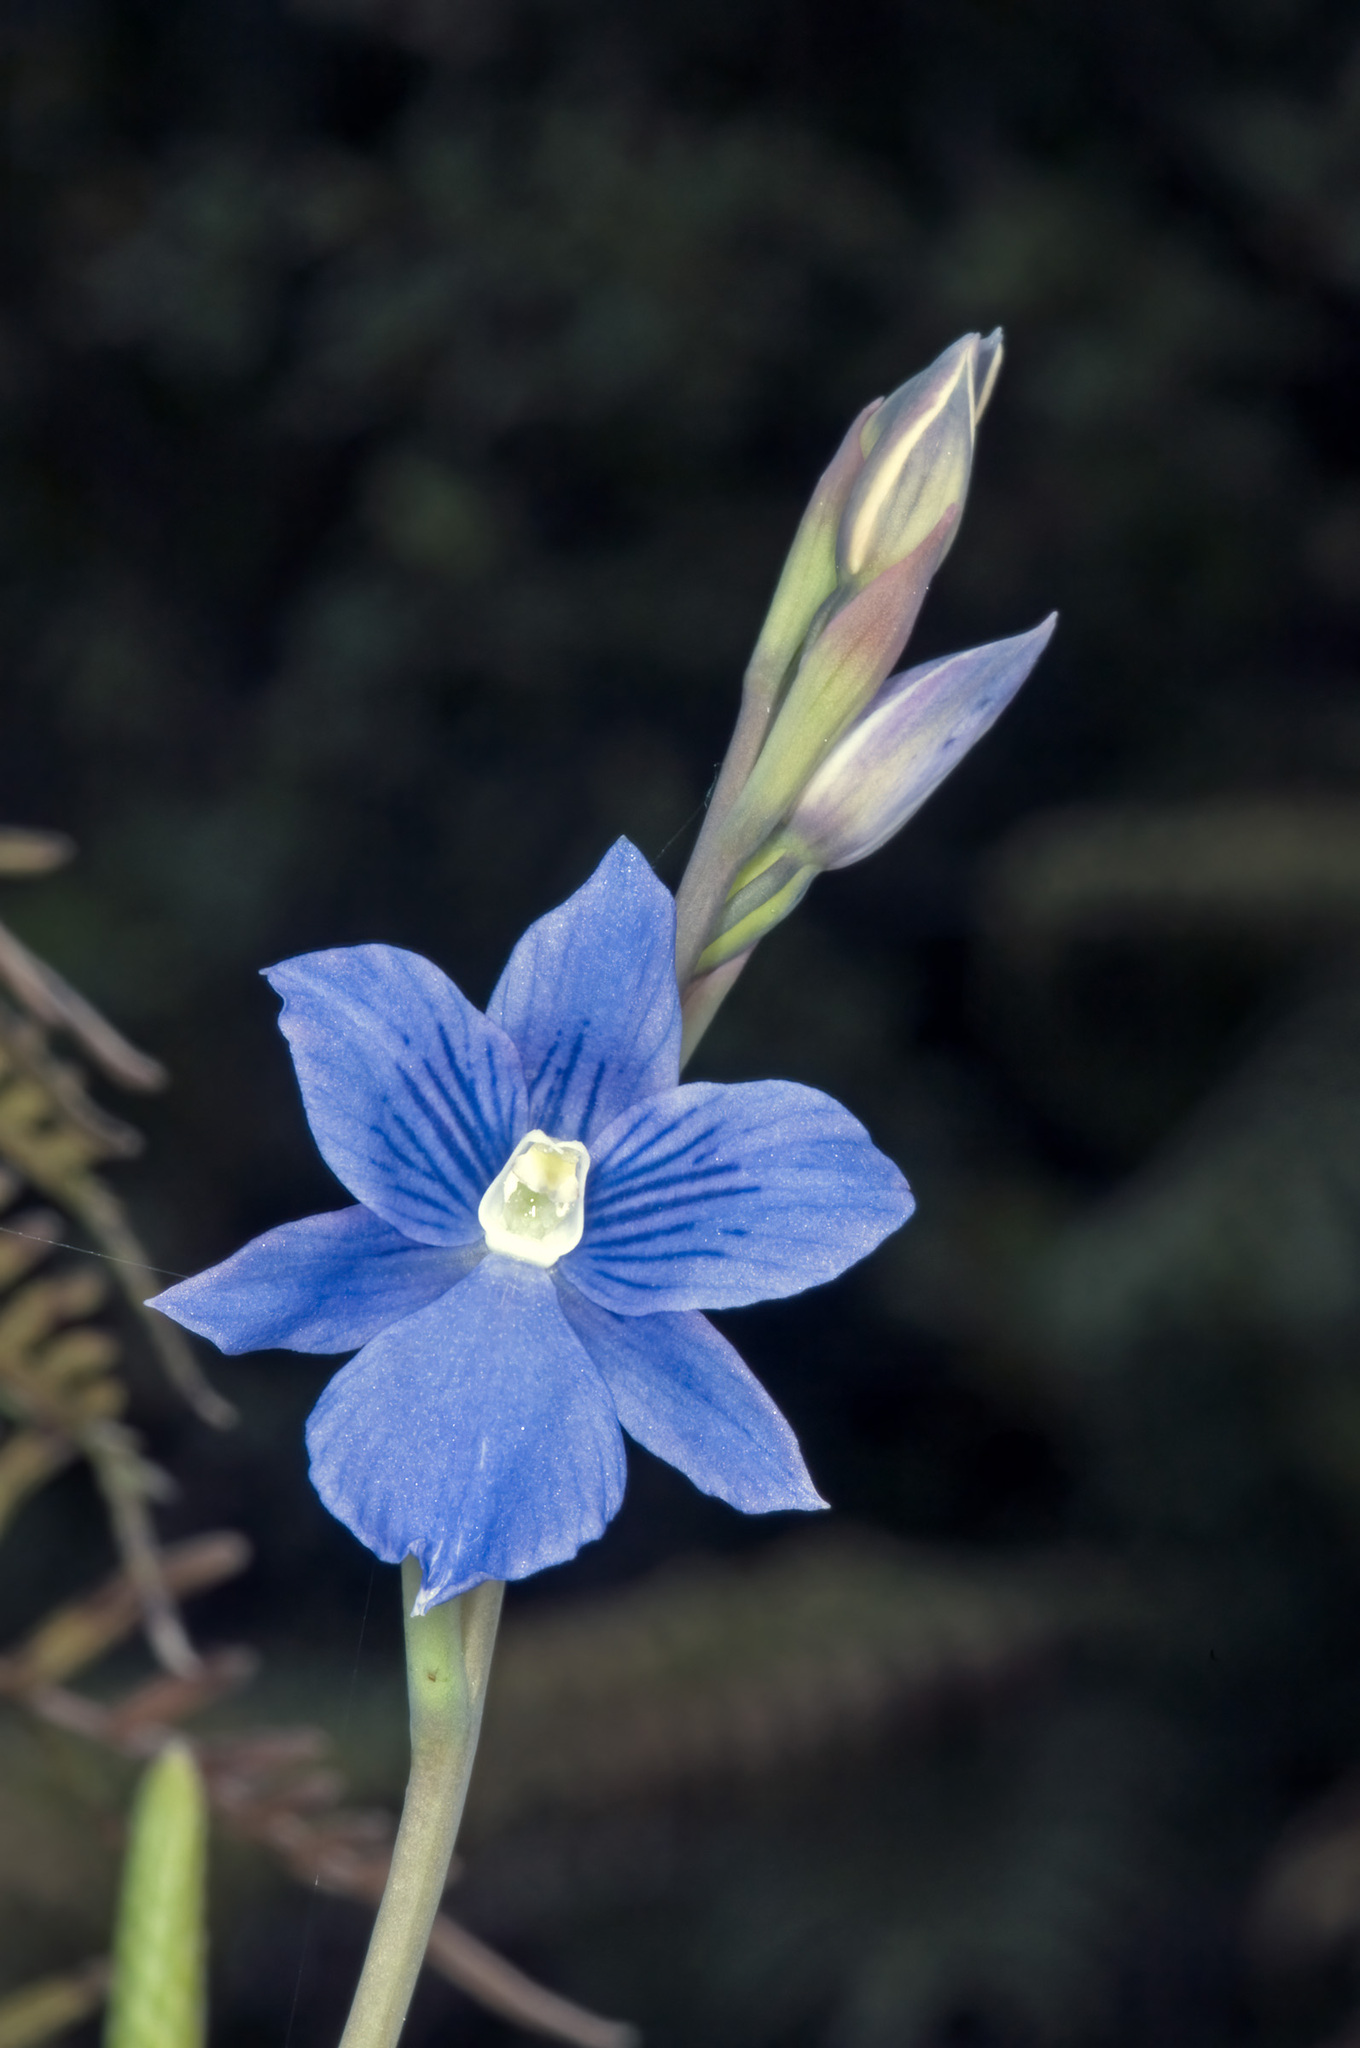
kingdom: Plantae
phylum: Tracheophyta
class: Liliopsida
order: Asparagales
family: Orchidaceae
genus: Thelymitra
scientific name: Thelymitra cyanea
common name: Blue sun-orchid
